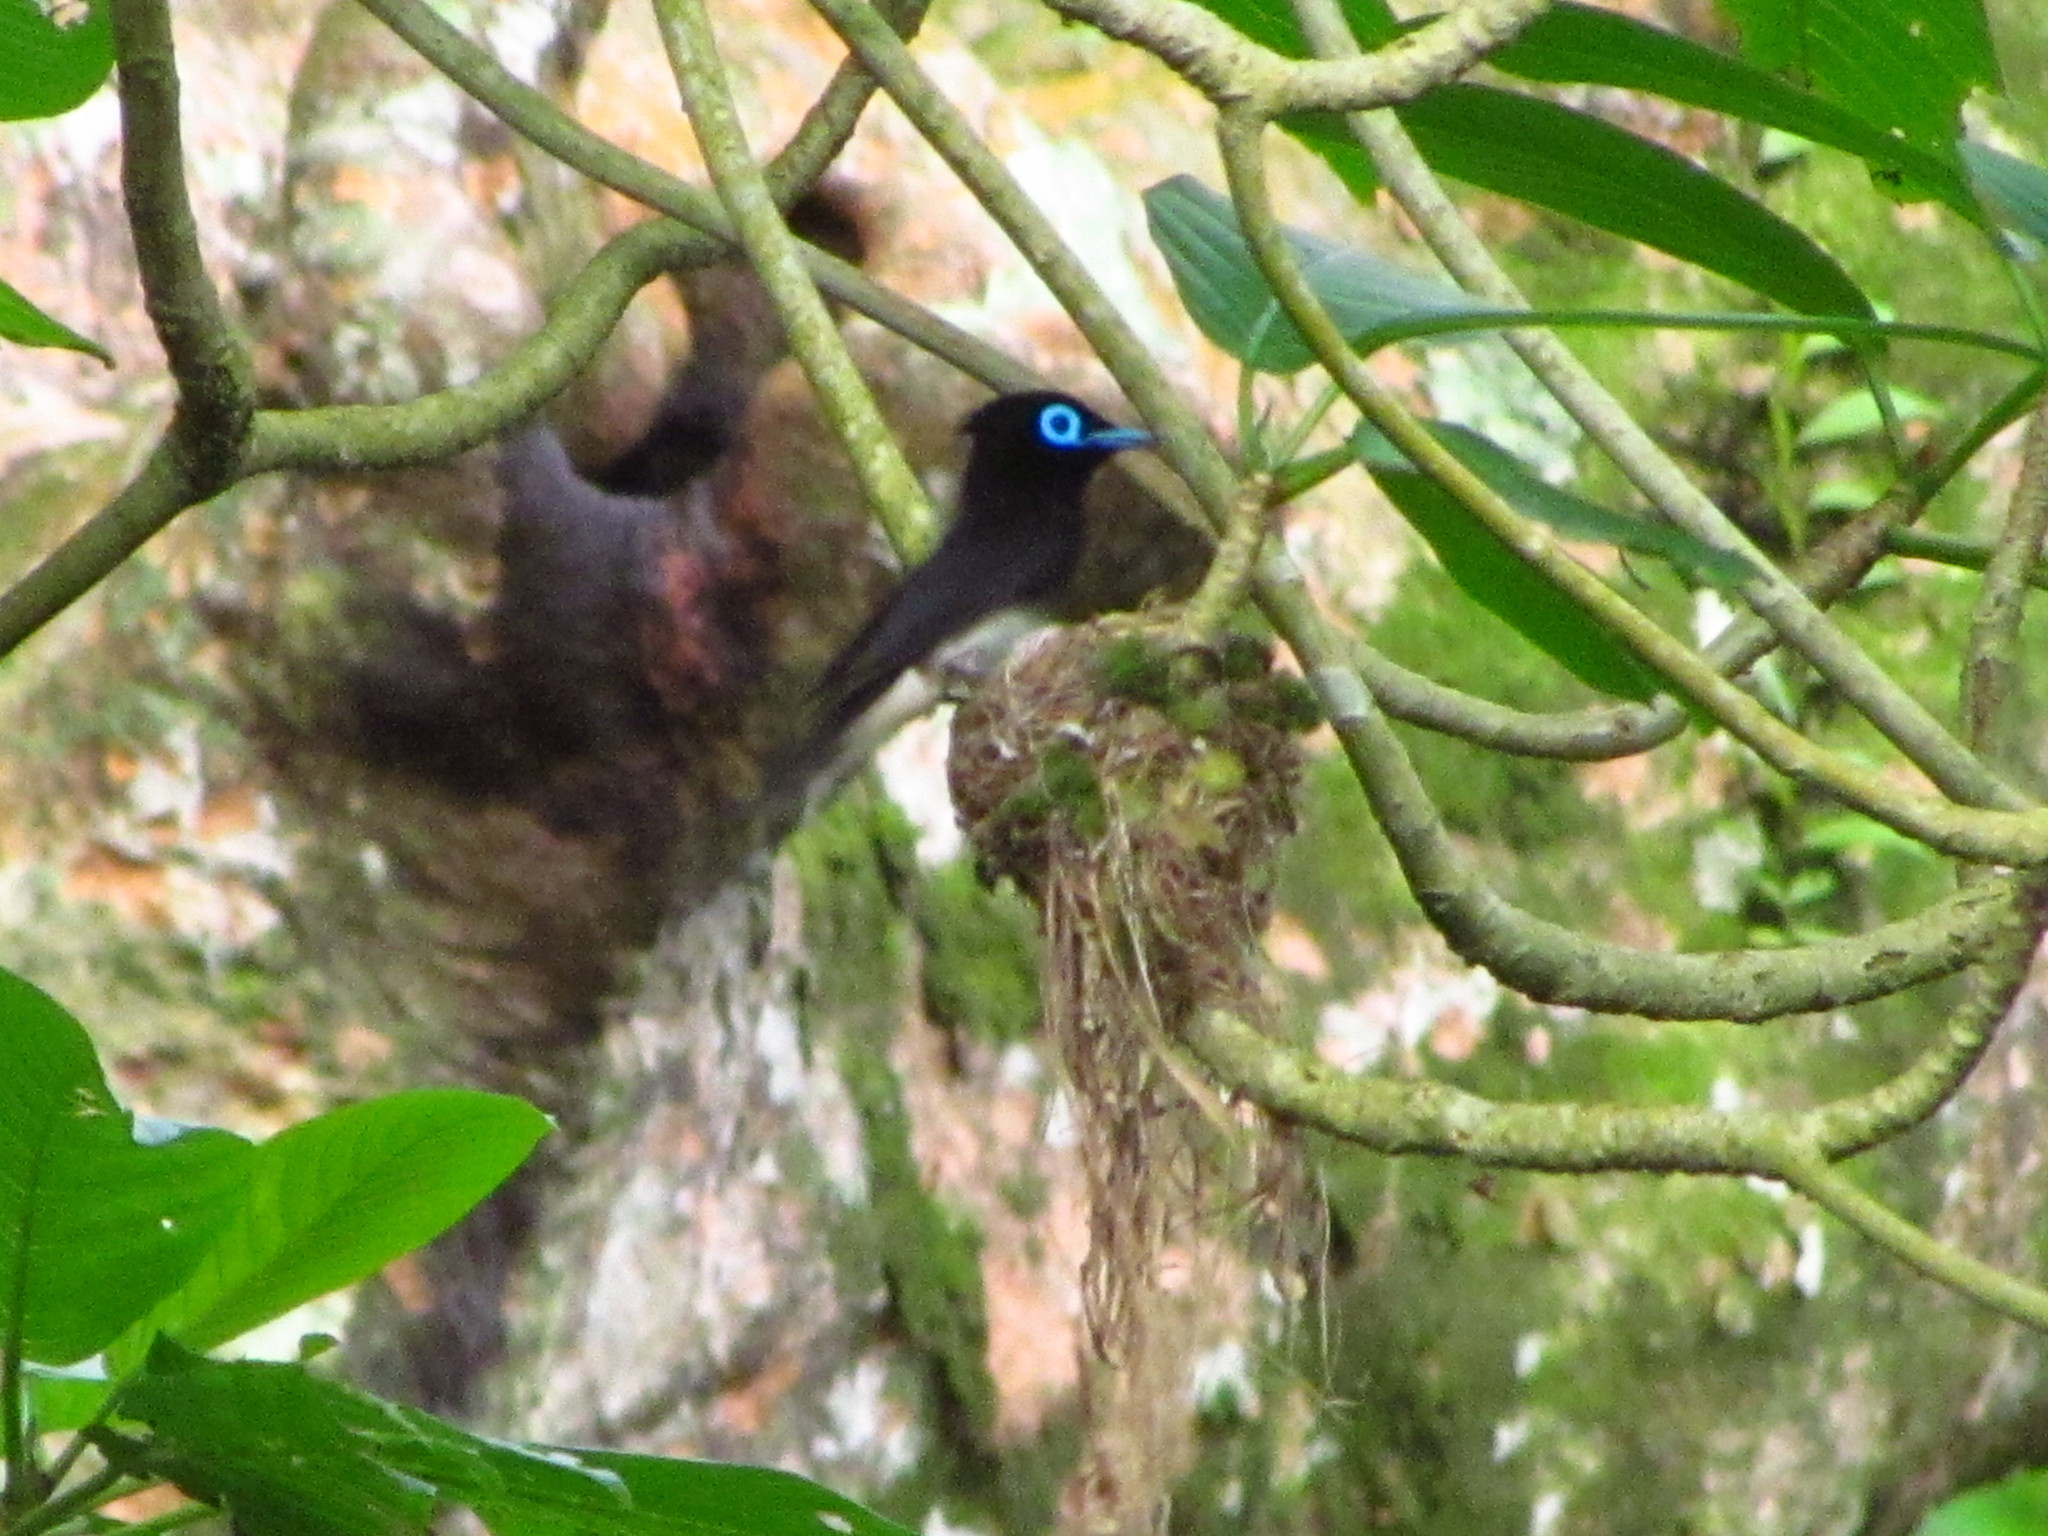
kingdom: Animalia
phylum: Chordata
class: Aves
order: Passeriformes
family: Monarchidae
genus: Terpsiphone
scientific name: Terpsiphone atrocaudata
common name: Japanese paradise flycatcher
